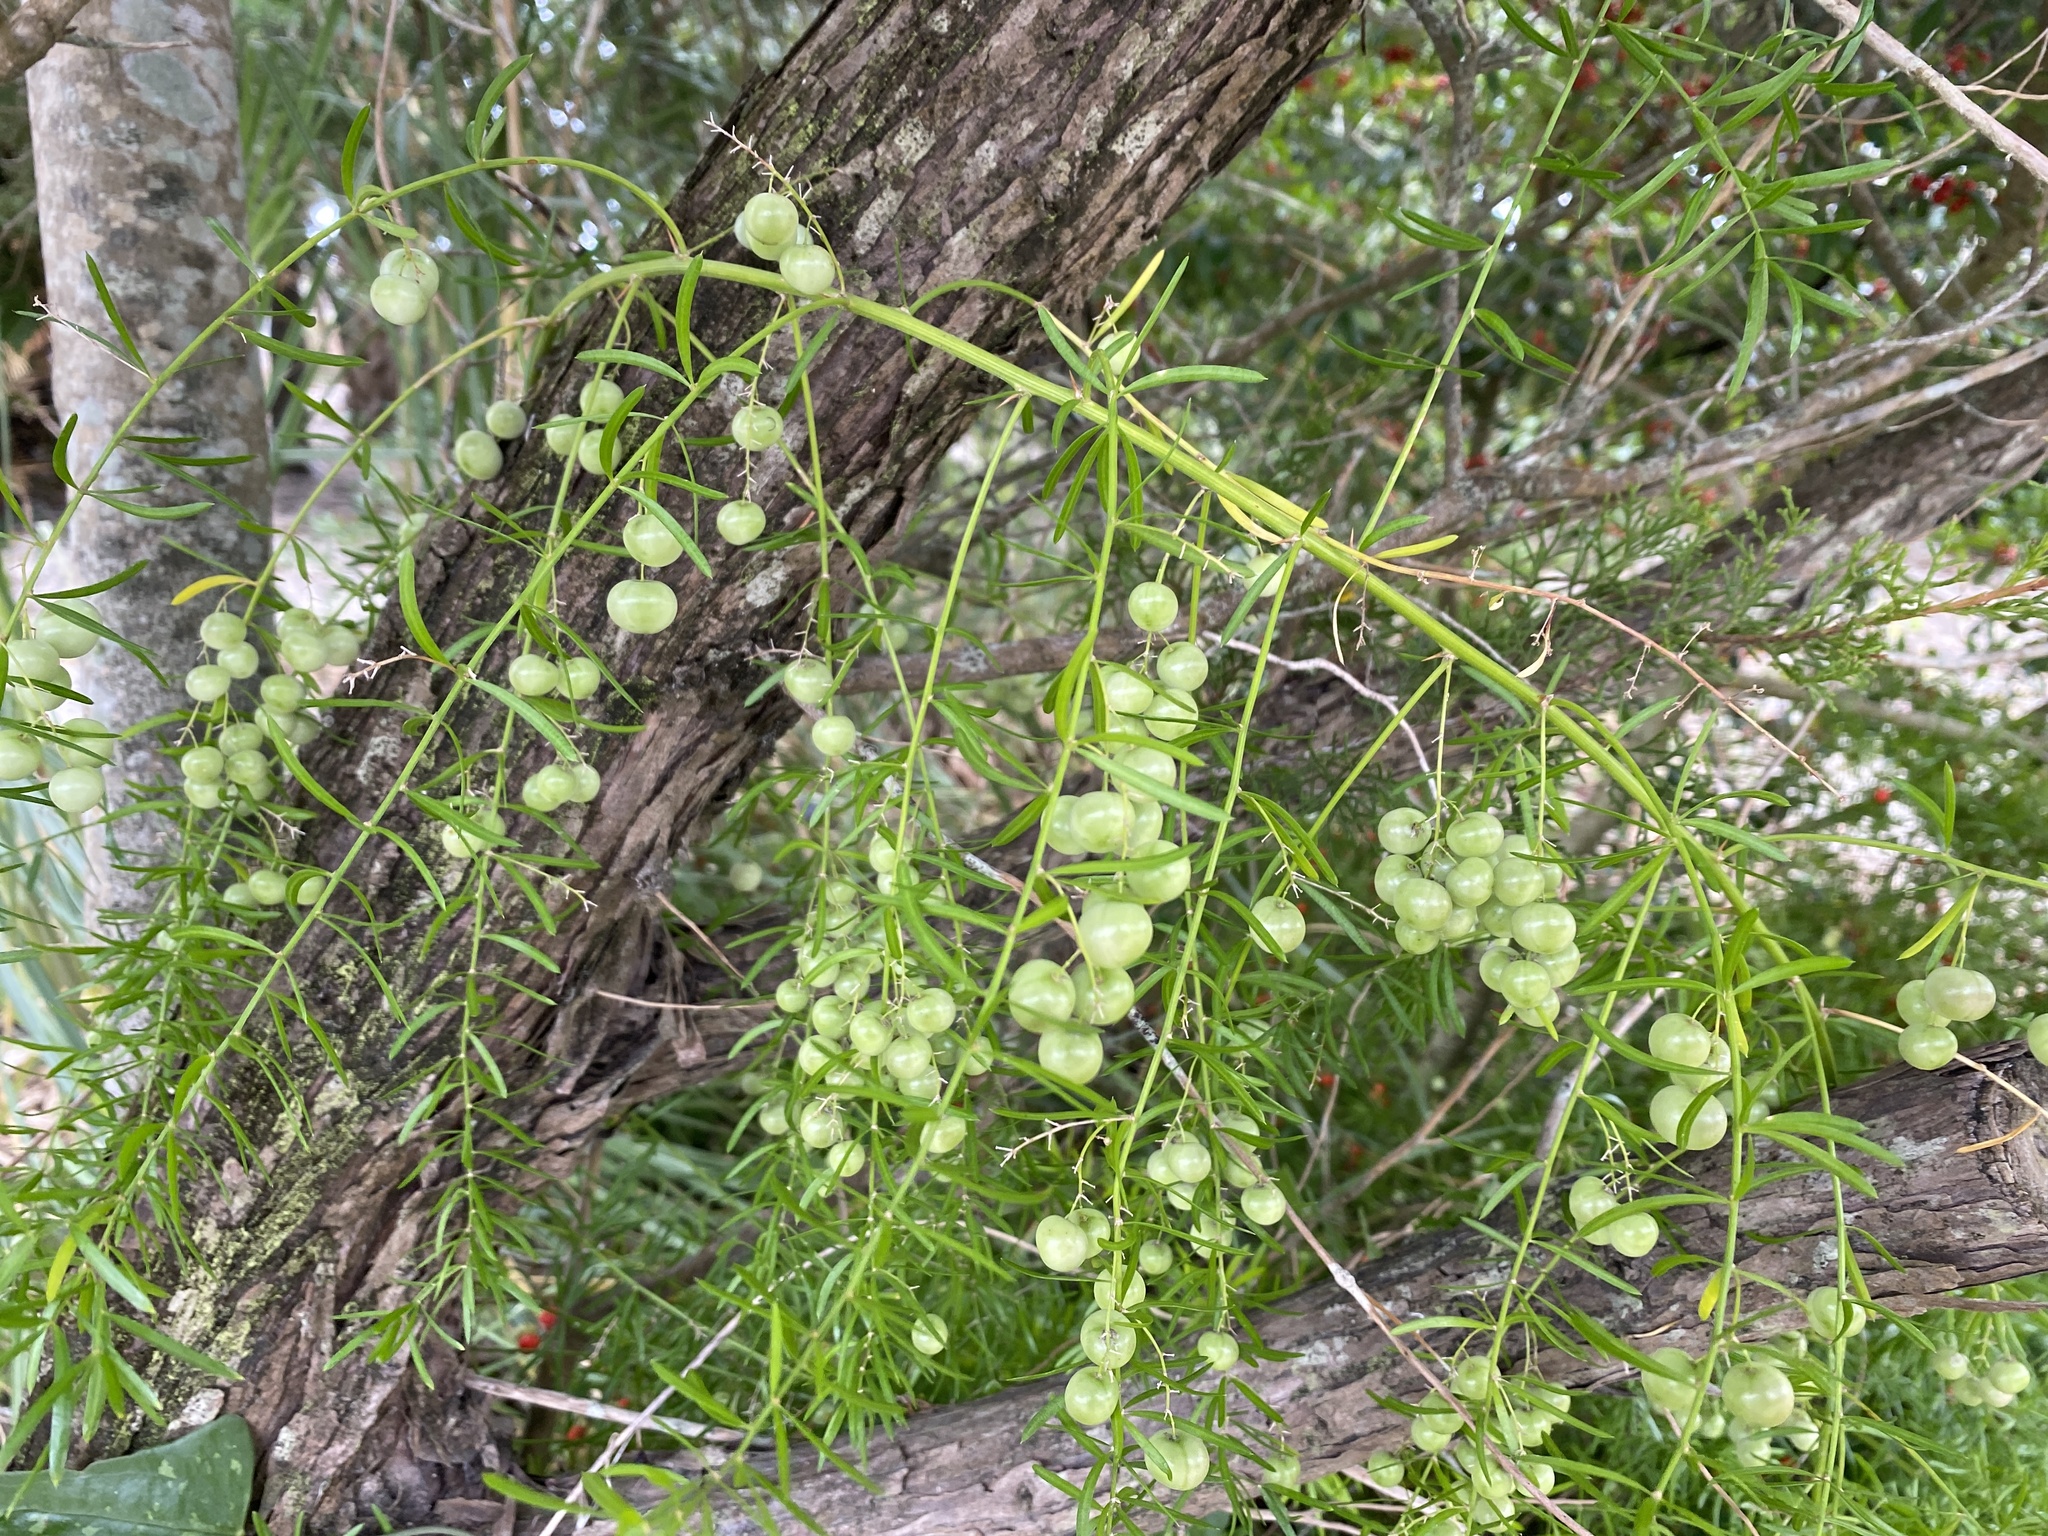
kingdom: Plantae
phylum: Tracheophyta
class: Liliopsida
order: Asparagales
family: Asparagaceae
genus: Asparagus
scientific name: Asparagus aethiopicus
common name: Sprenger's asparagus fern
